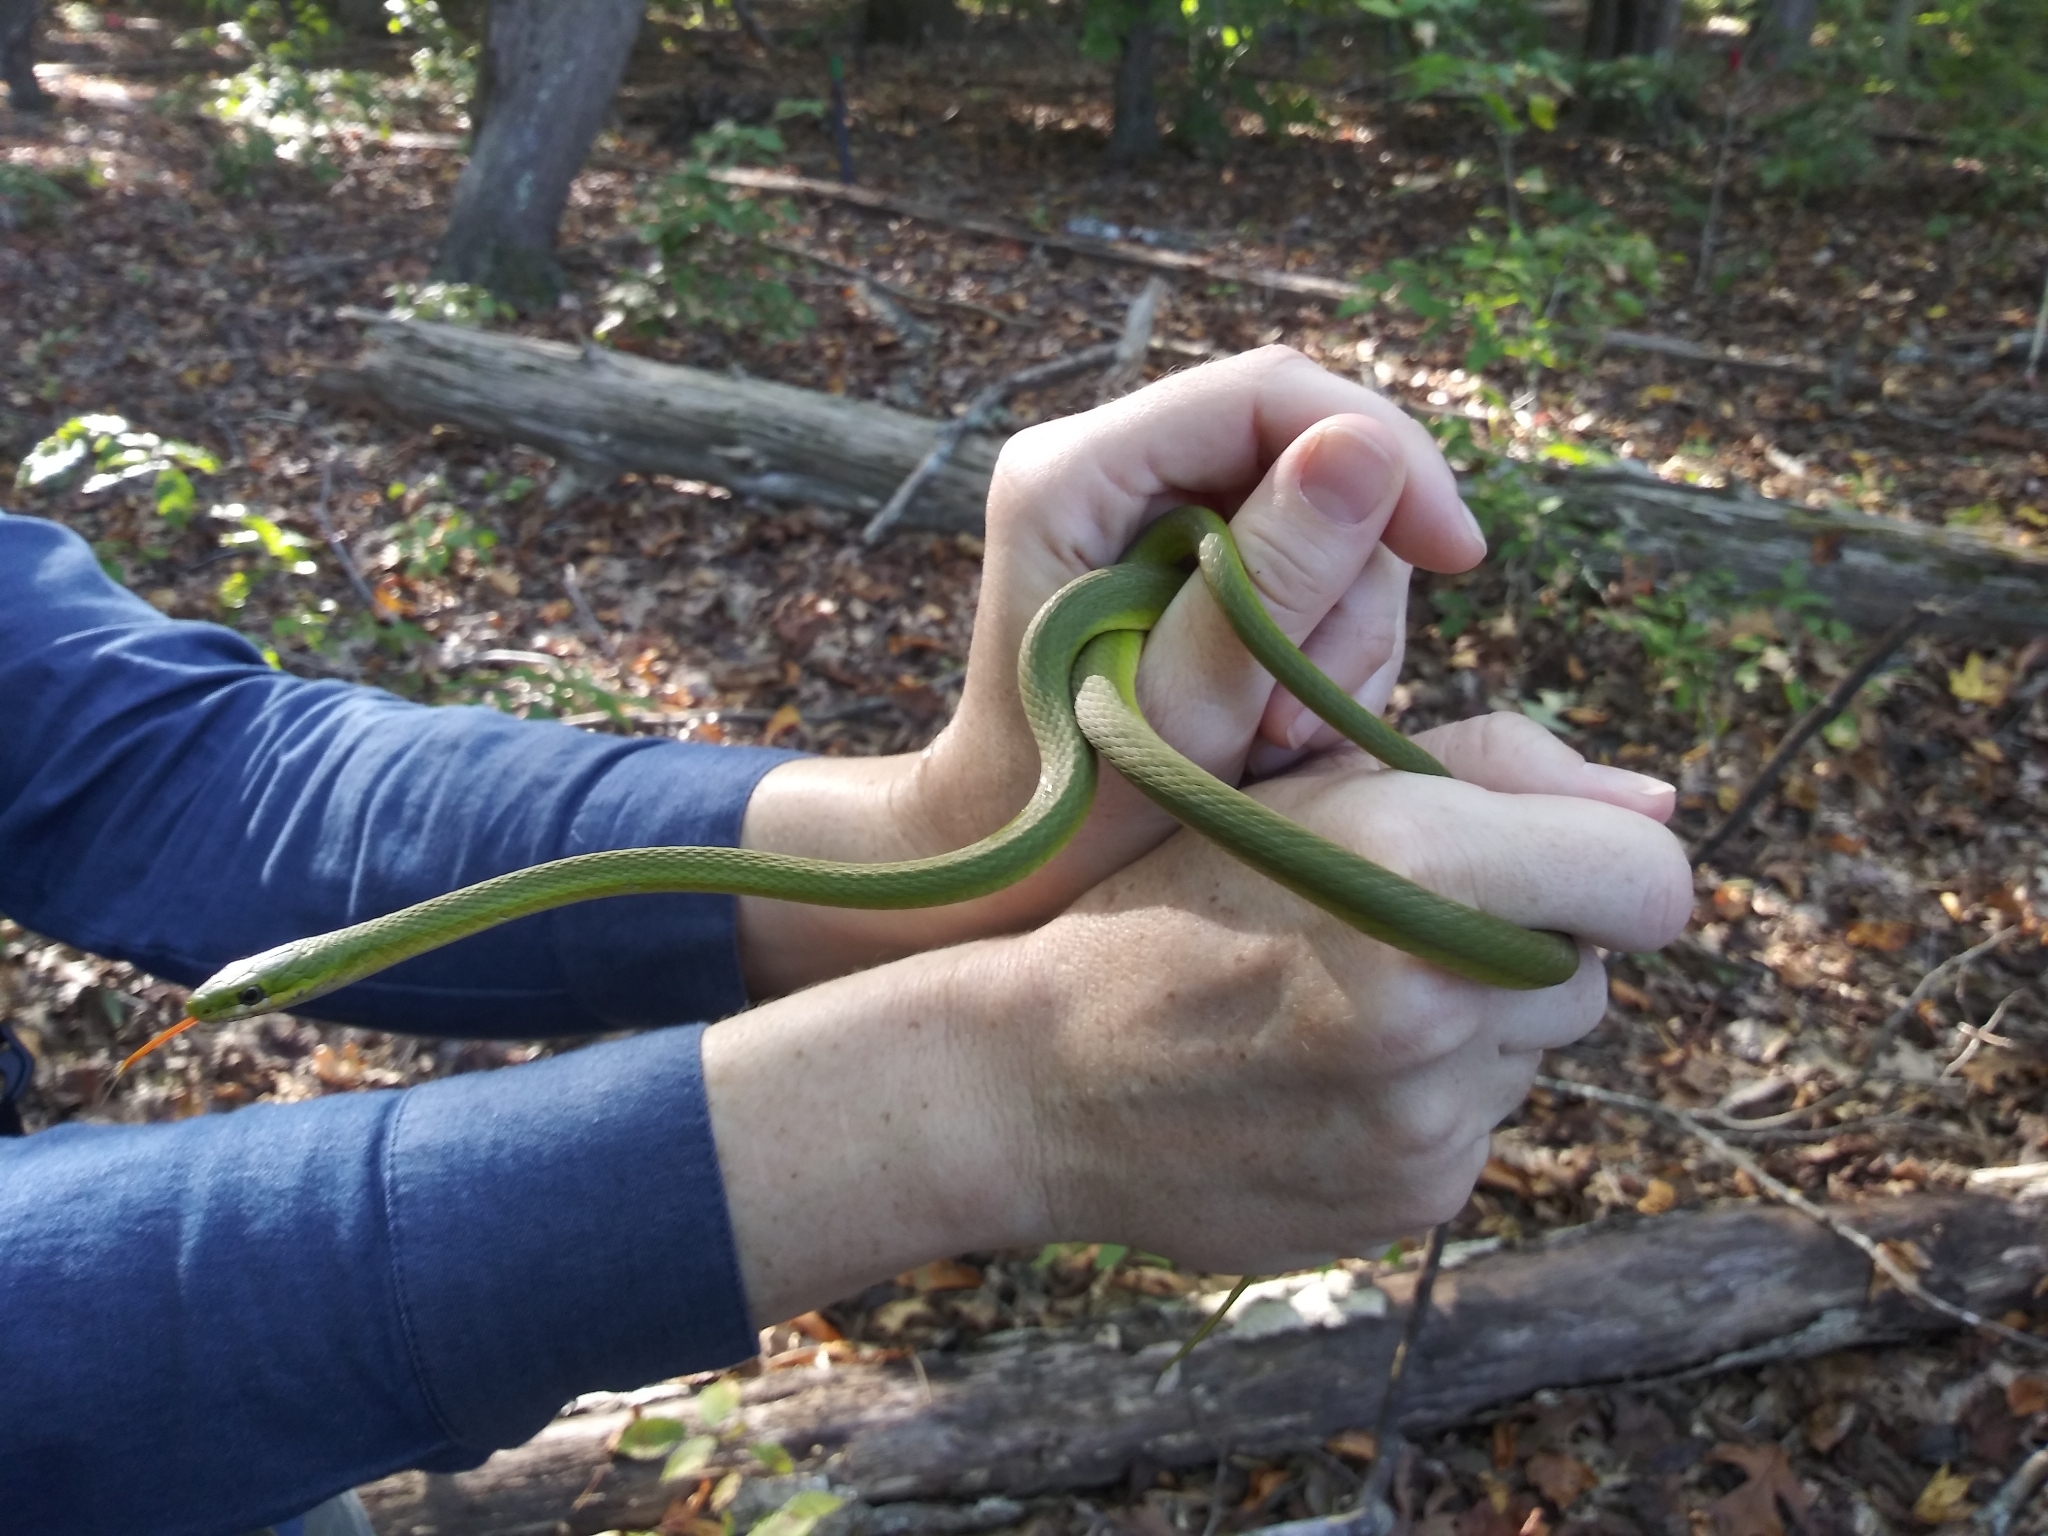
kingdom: Animalia
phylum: Chordata
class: Squamata
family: Colubridae
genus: Opheodrys
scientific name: Opheodrys aestivus
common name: Rough greensnake
